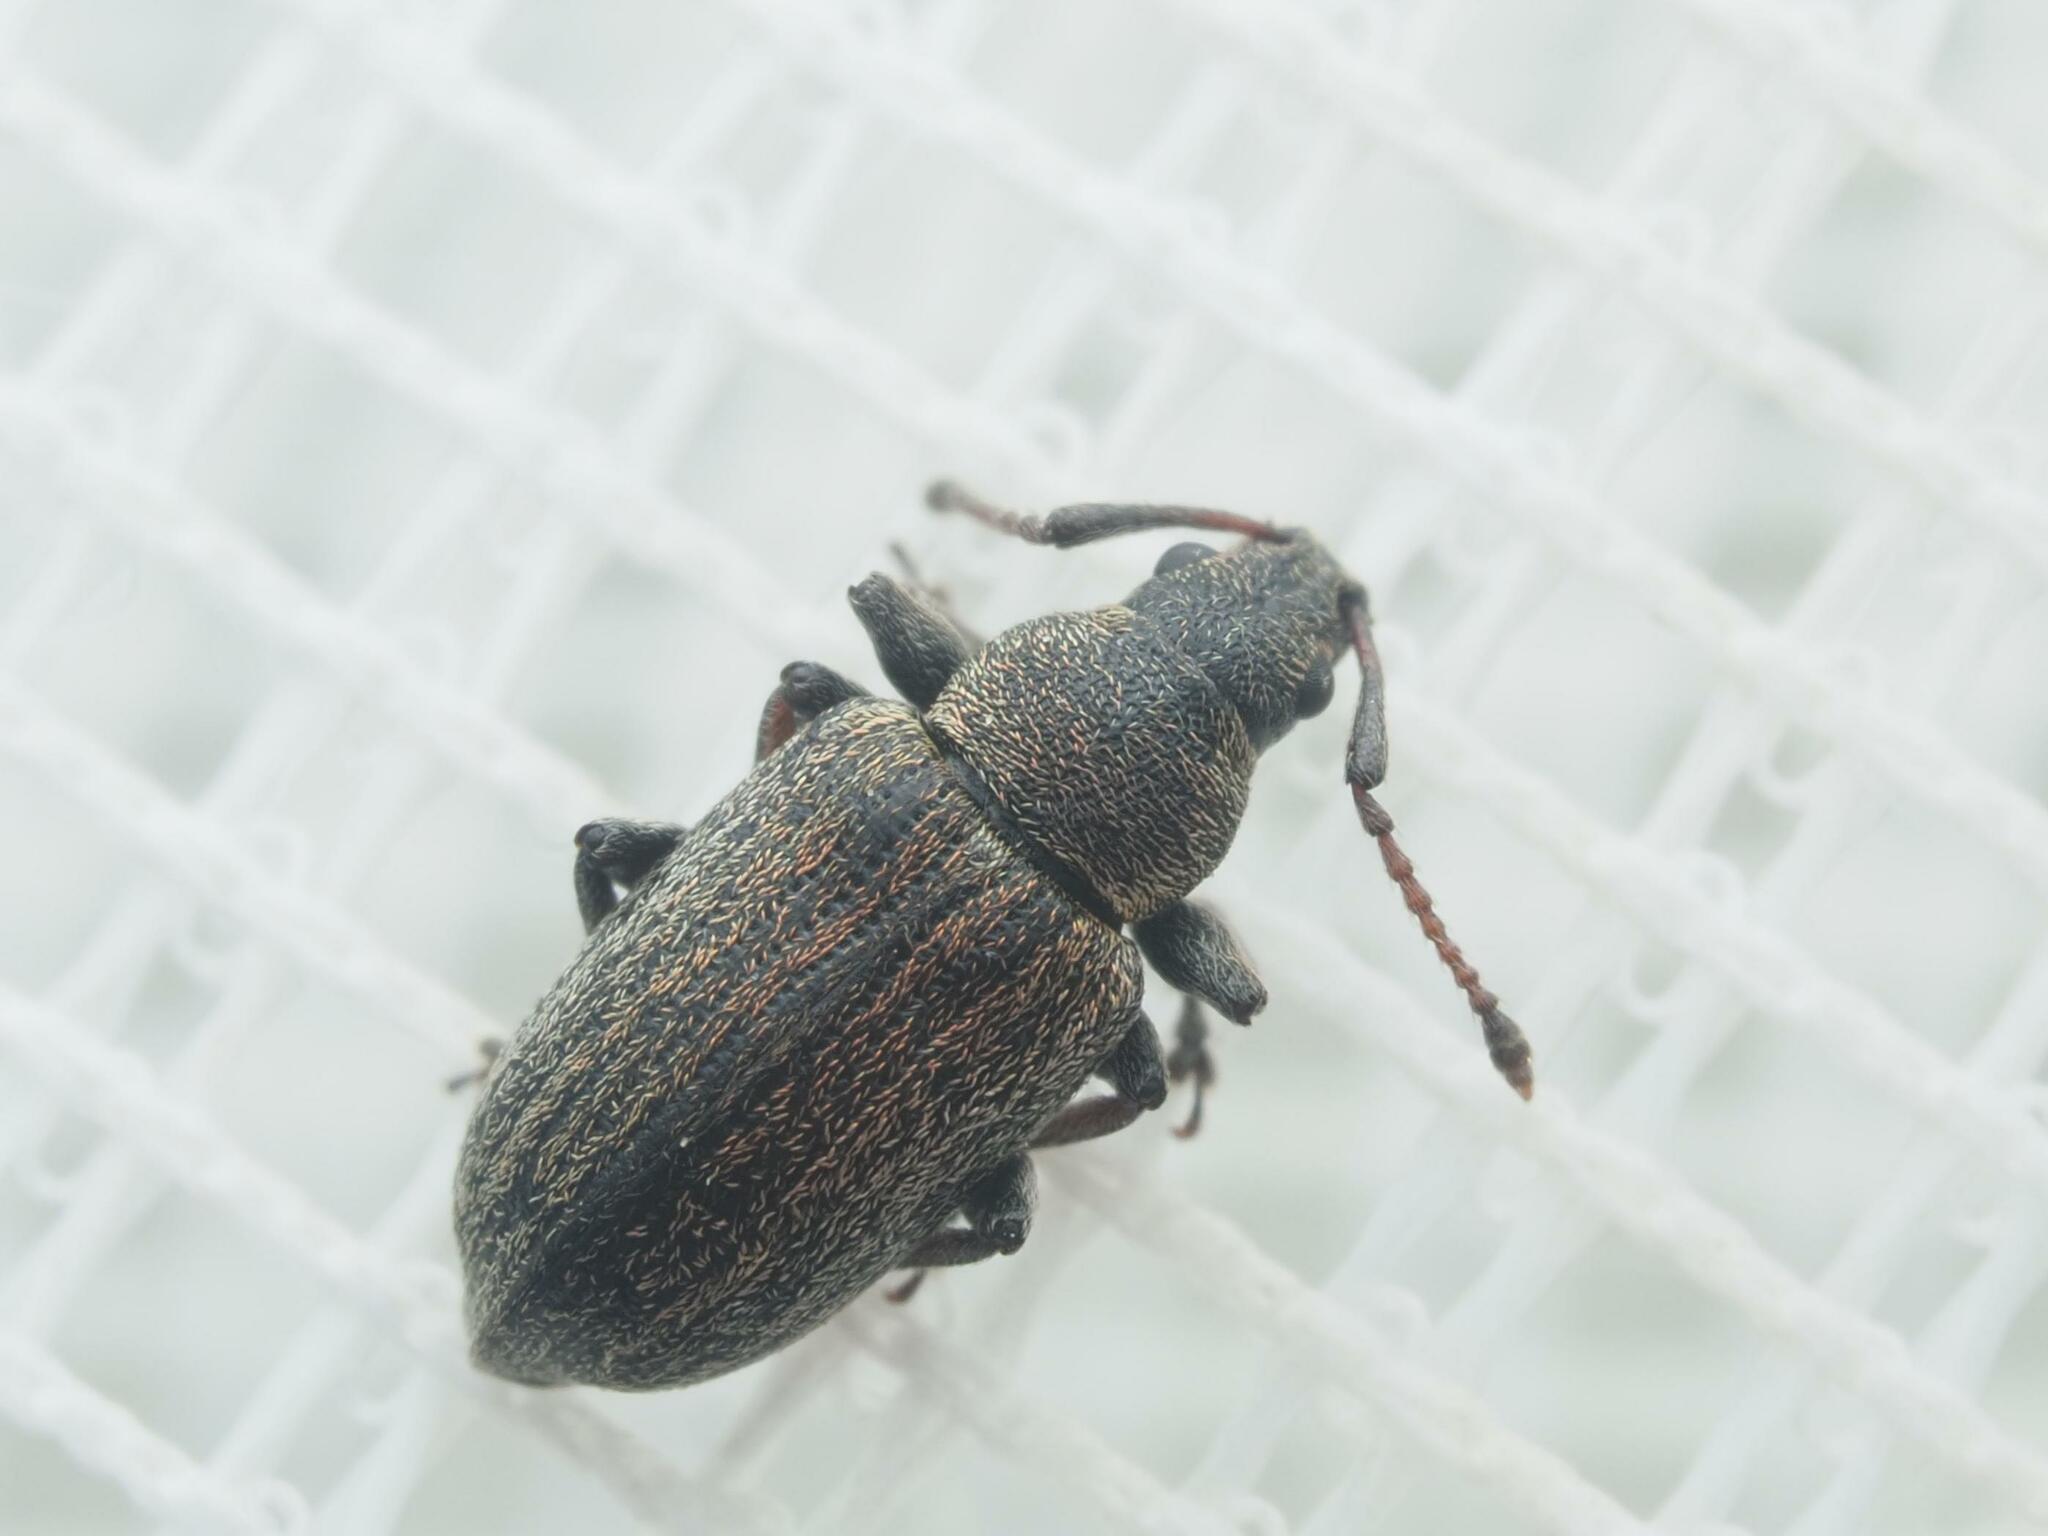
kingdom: Animalia
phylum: Arthropoda
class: Insecta
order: Coleoptera
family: Curculionidae
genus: Phyllobius
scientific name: Phyllobius pyri
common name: Common leaf weevil
